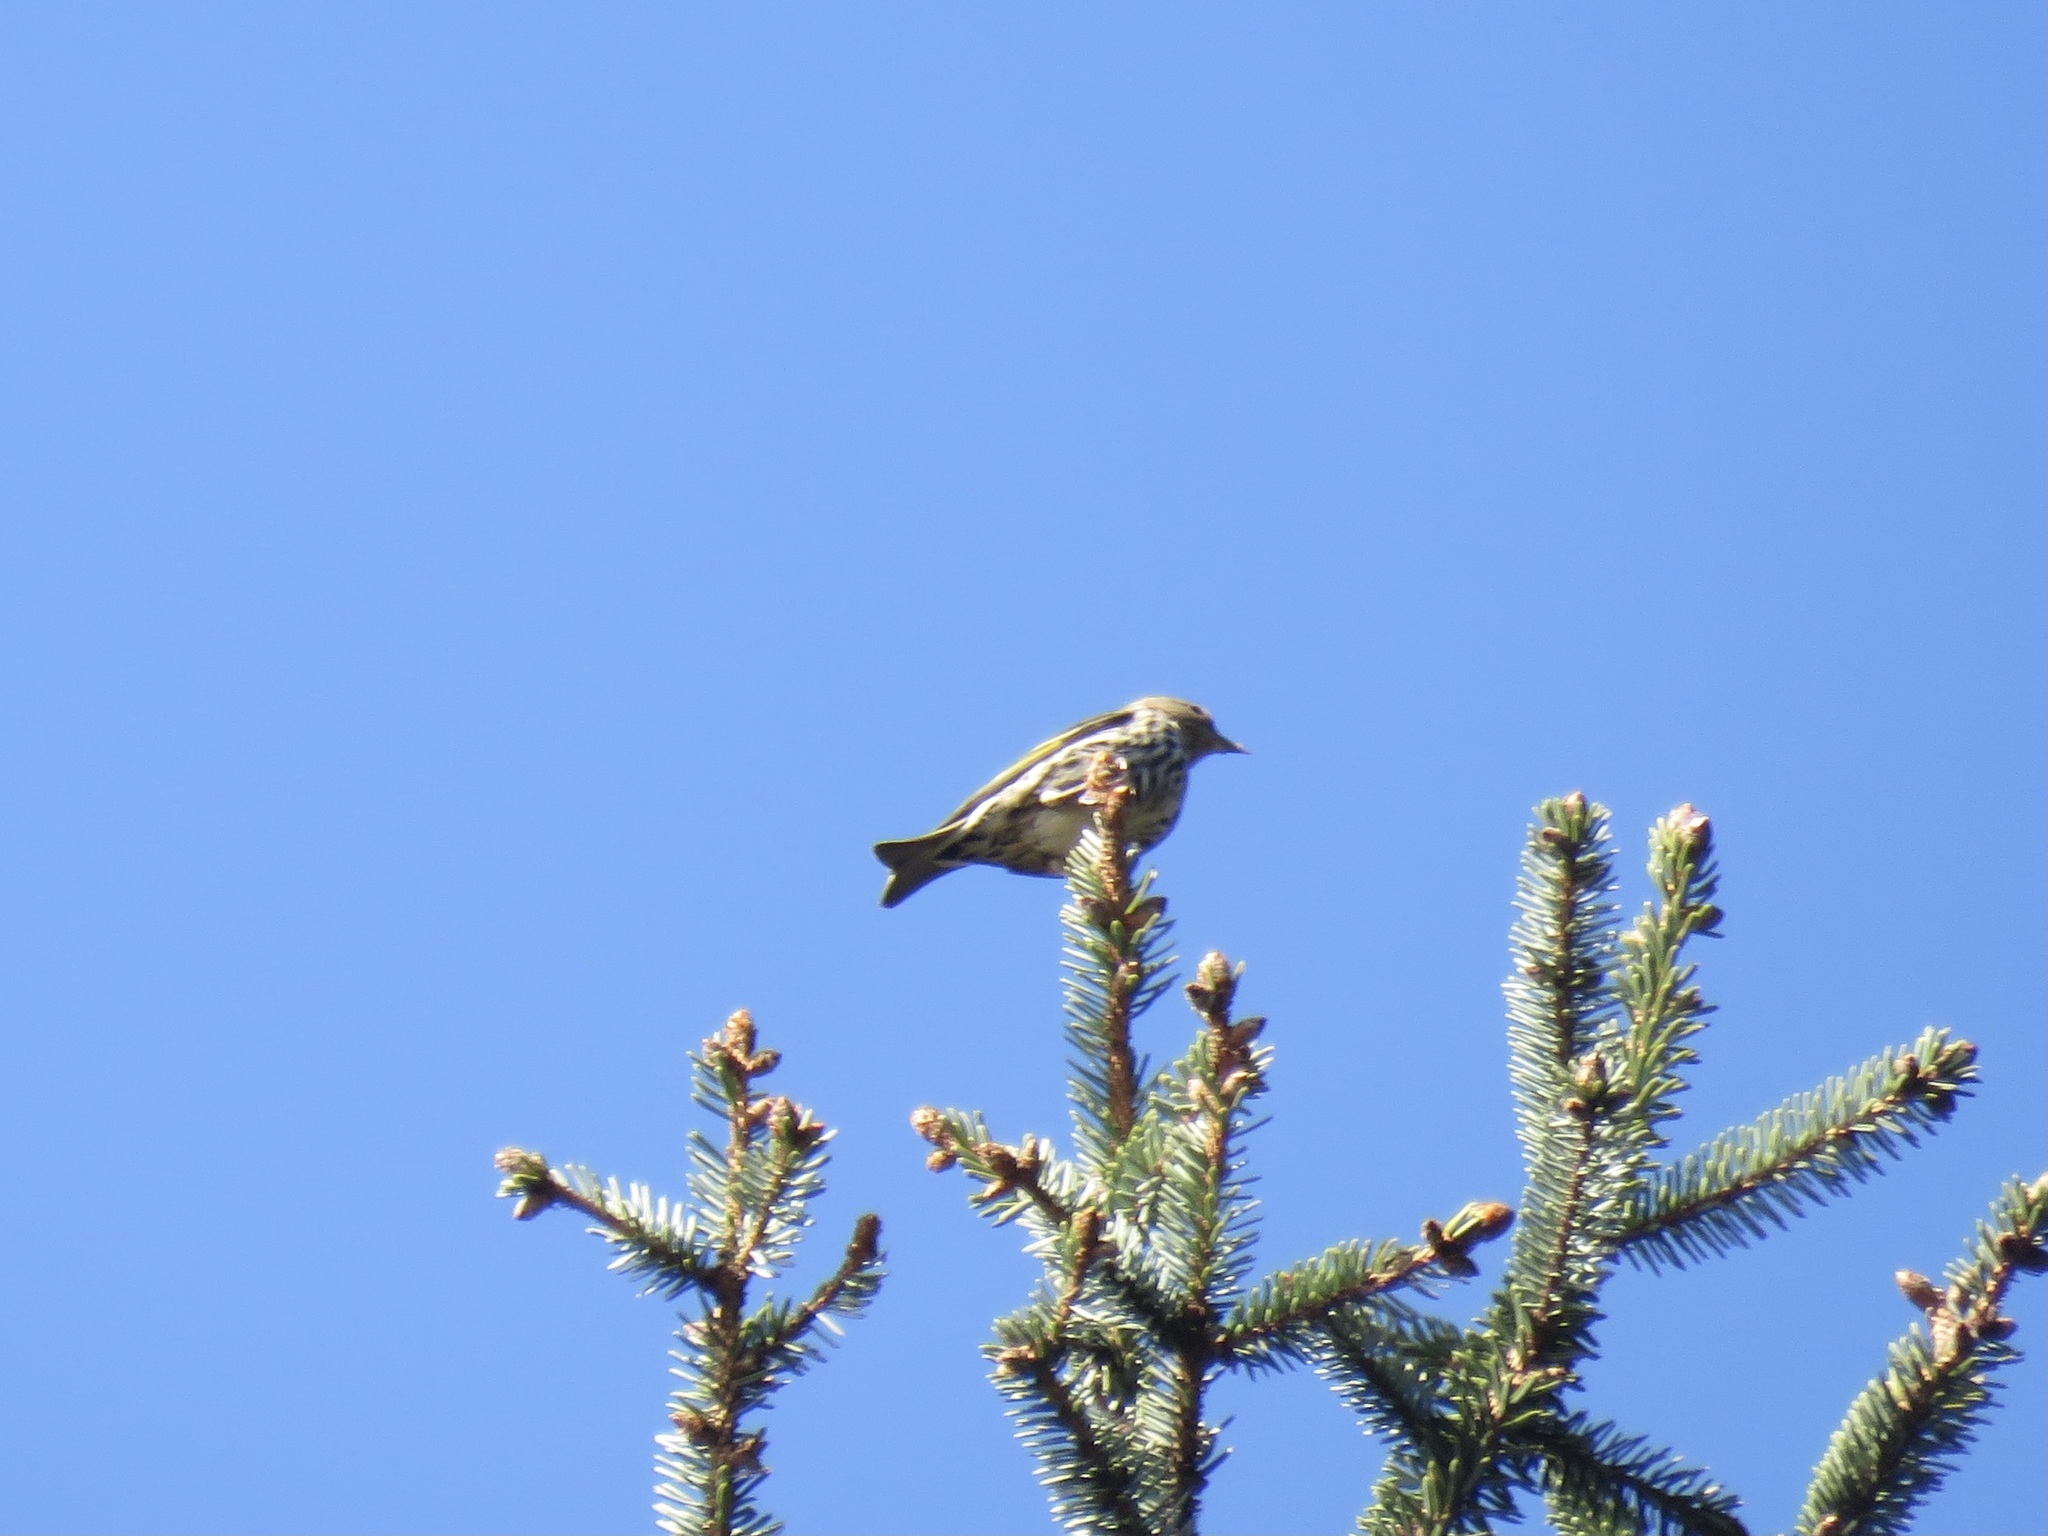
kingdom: Animalia
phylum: Chordata
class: Aves
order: Passeriformes
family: Fringillidae
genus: Spinus
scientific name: Spinus pinus
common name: Pine siskin
